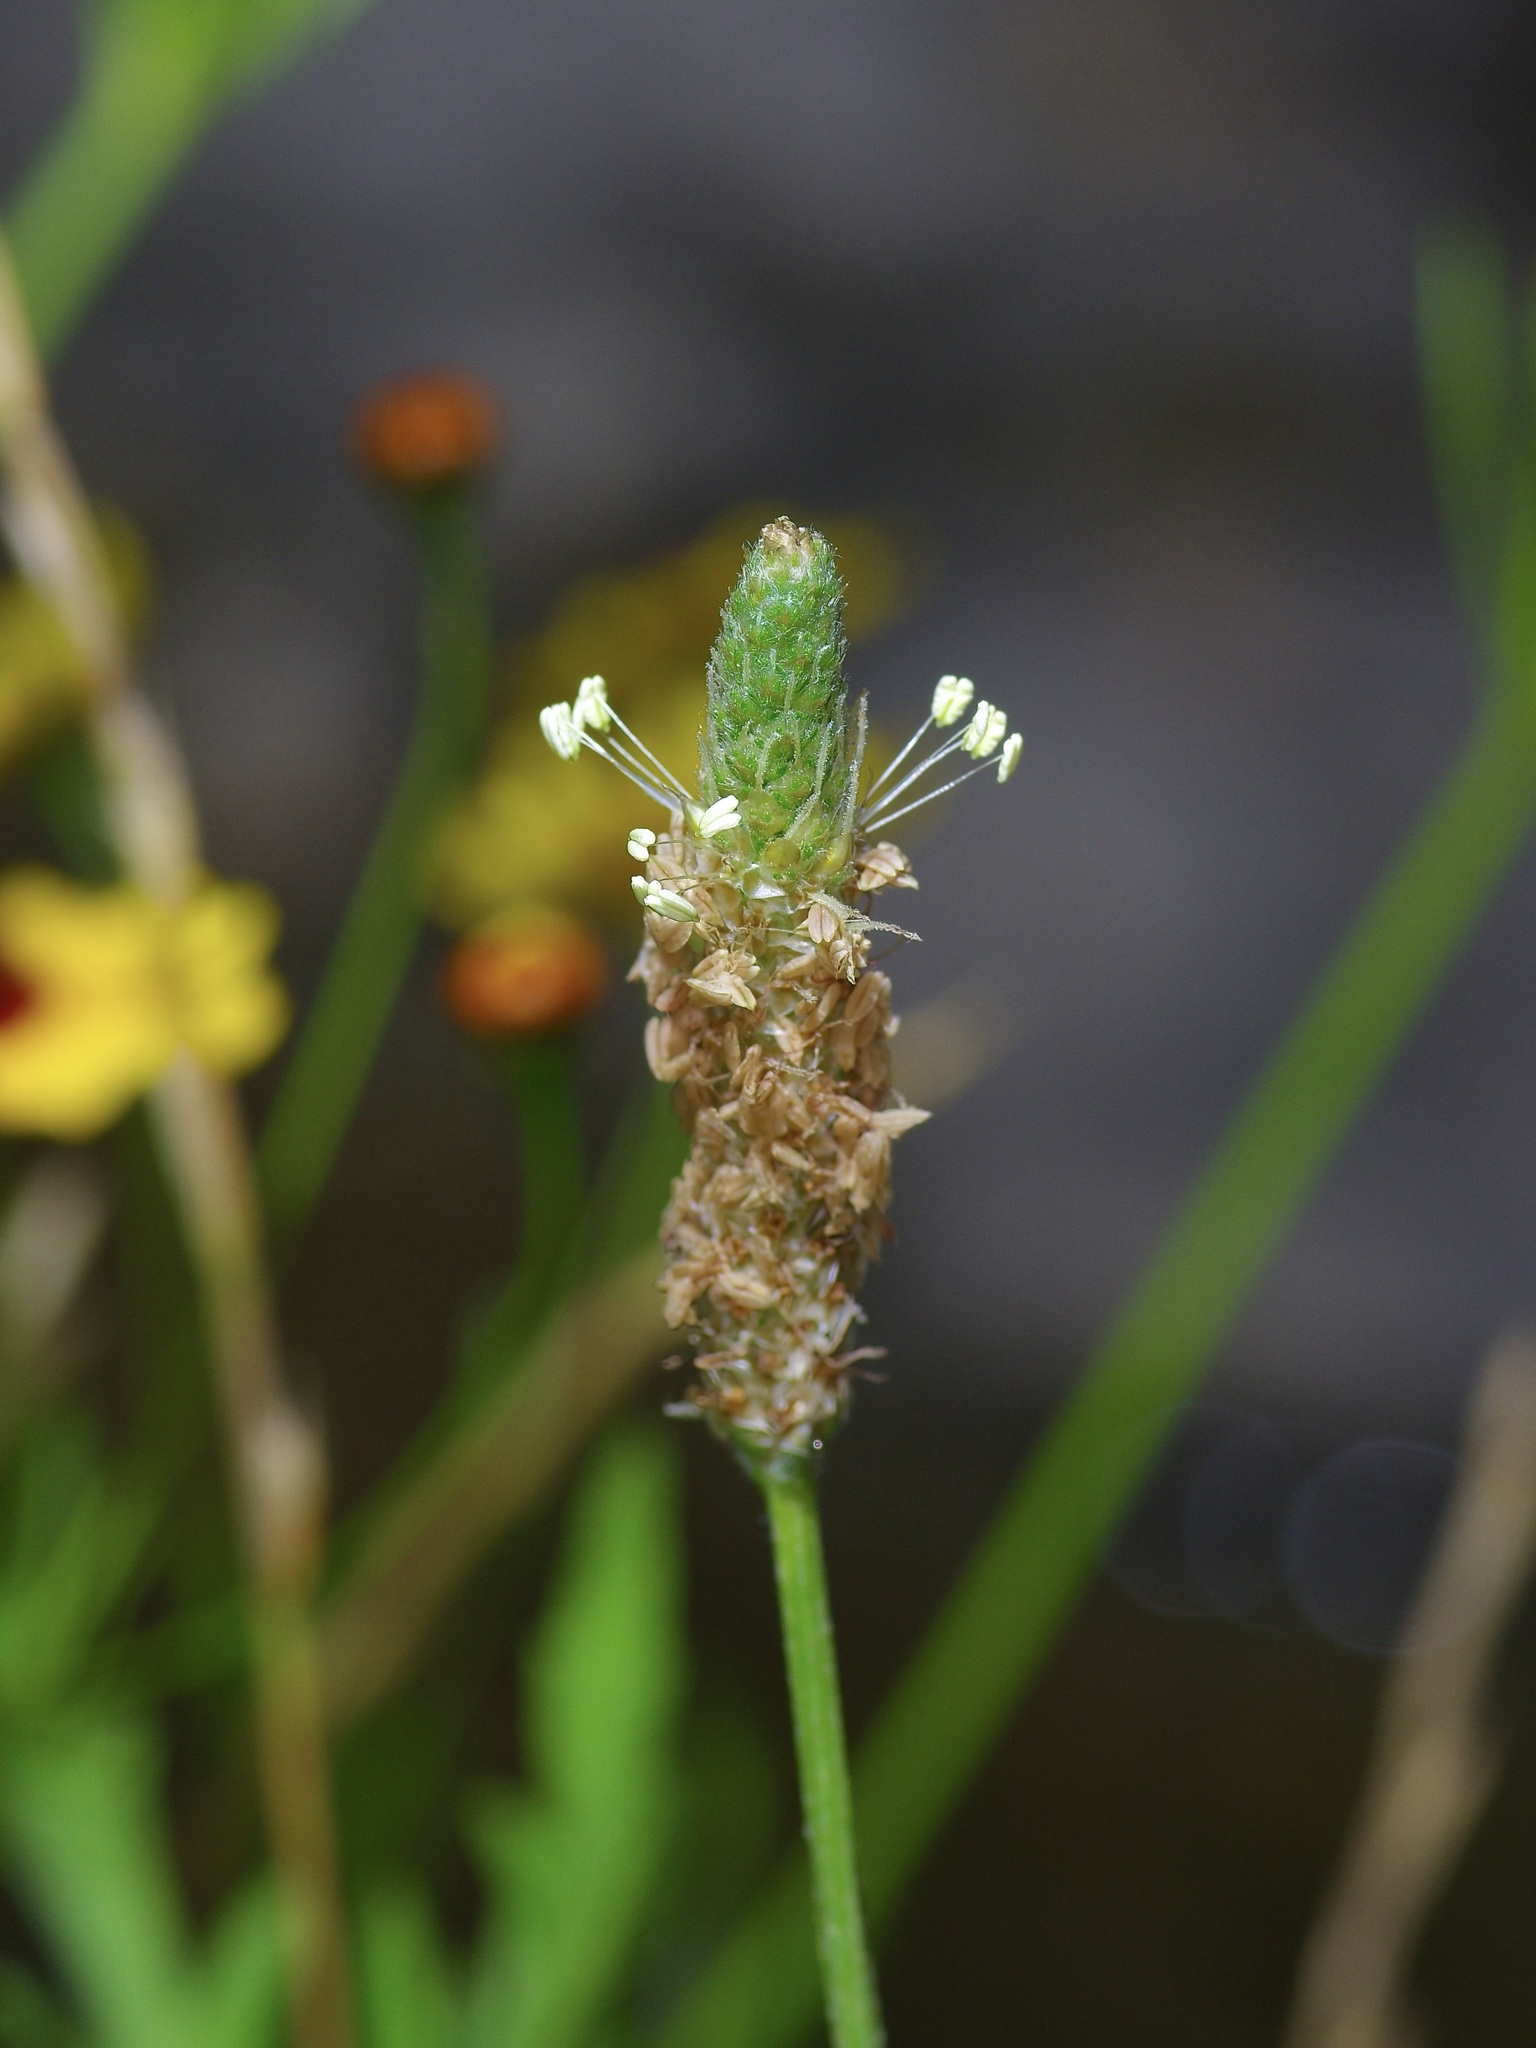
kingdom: Plantae
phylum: Tracheophyta
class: Magnoliopsida
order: Lamiales
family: Plantaginaceae
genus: Plantago
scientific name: Plantago lanceolata
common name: Ribwort plantain
